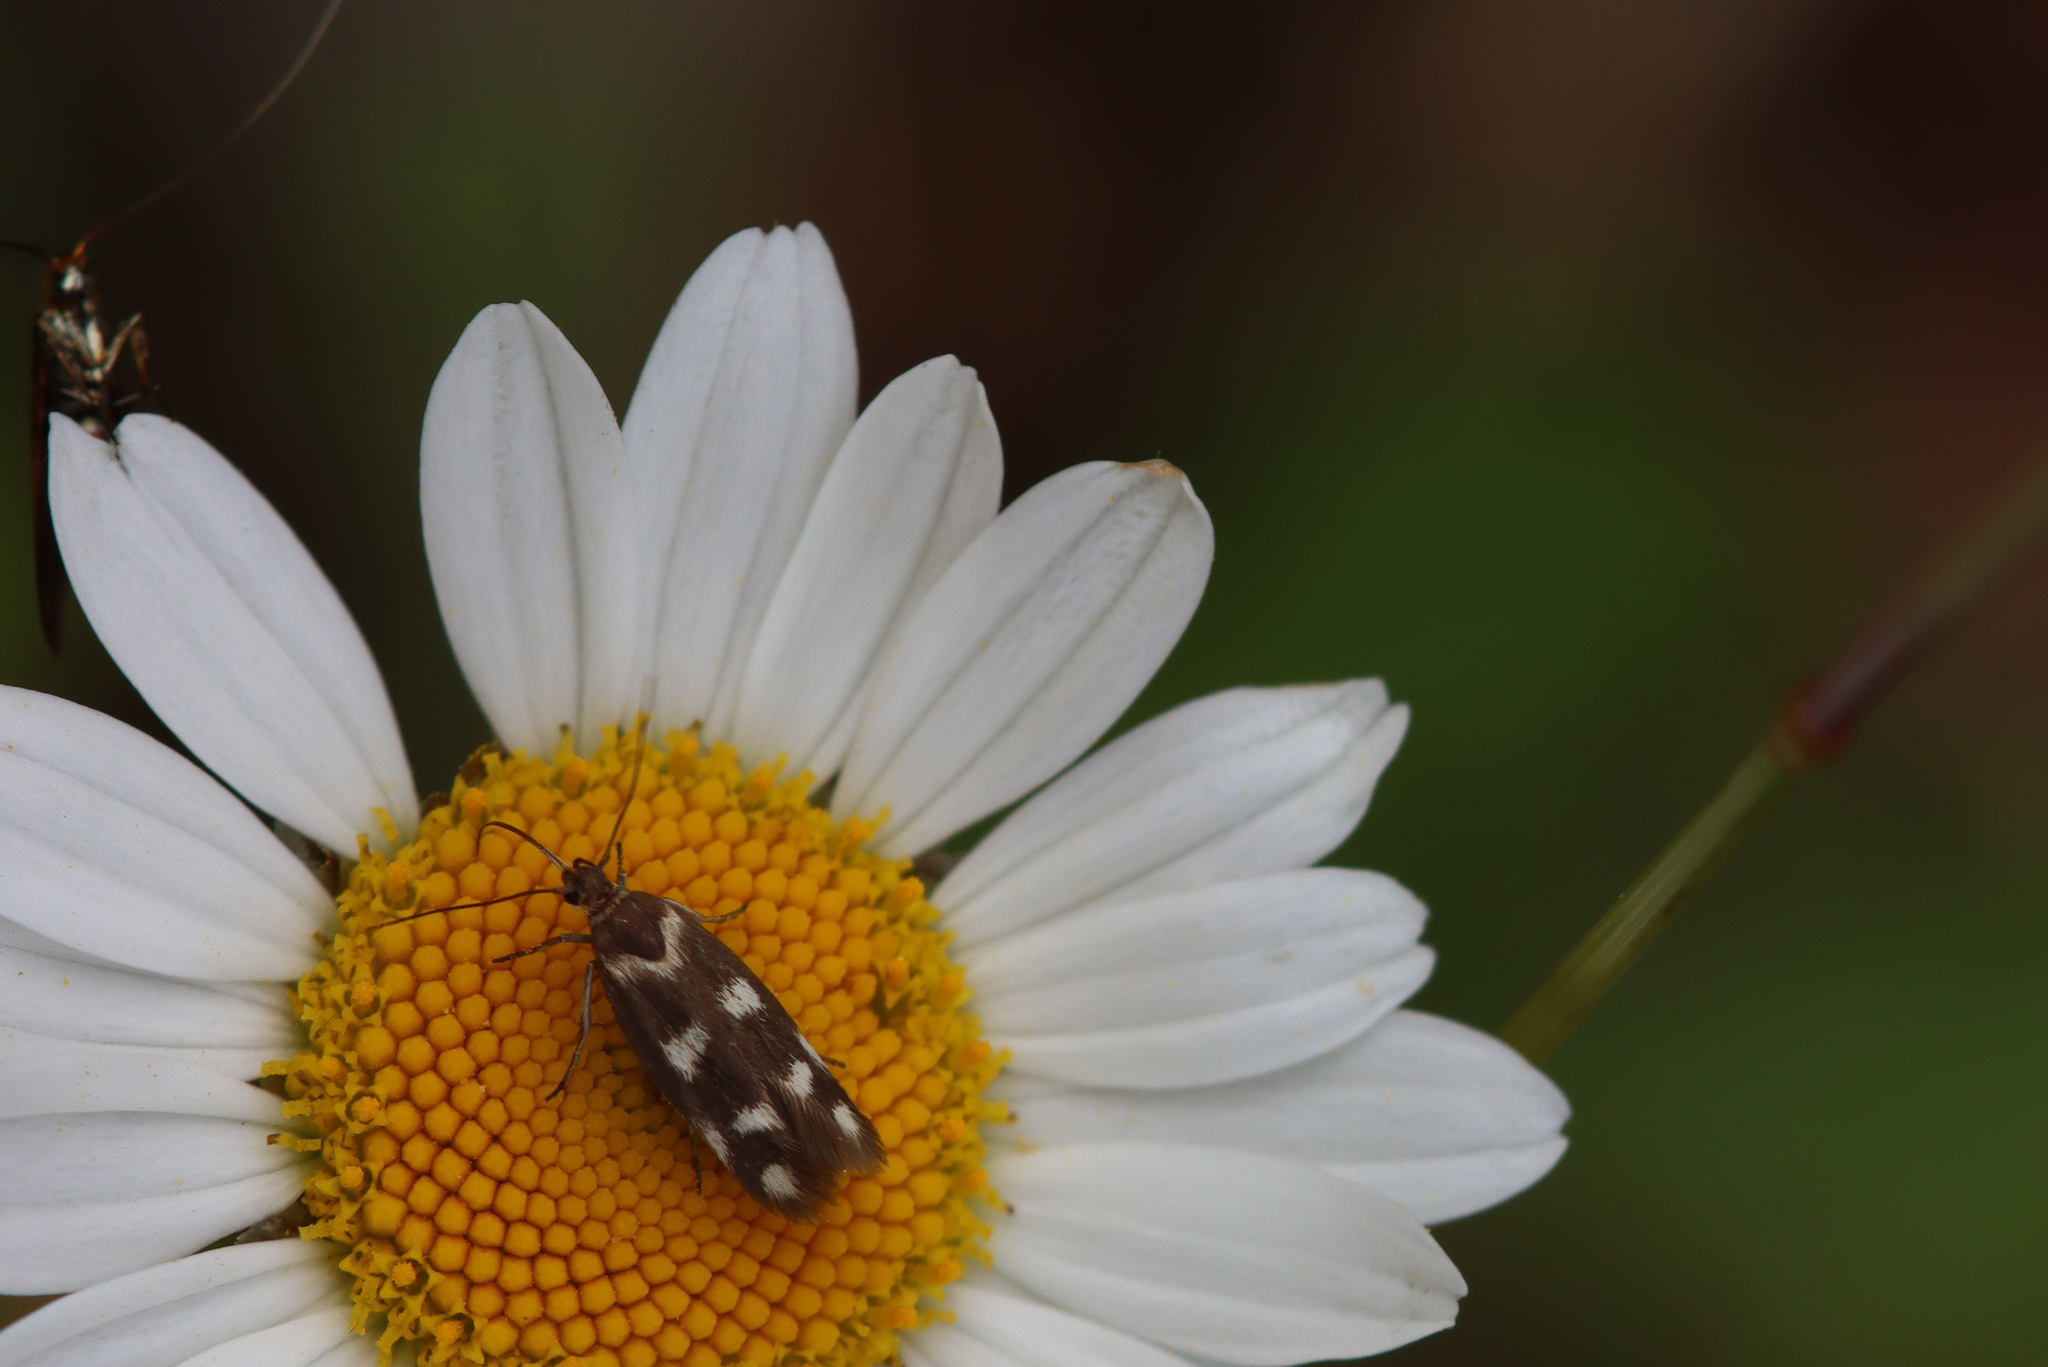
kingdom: Animalia
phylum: Arthropoda
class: Insecta
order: Lepidoptera
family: Scythrididae
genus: Scythris
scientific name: Scythris scopolella
